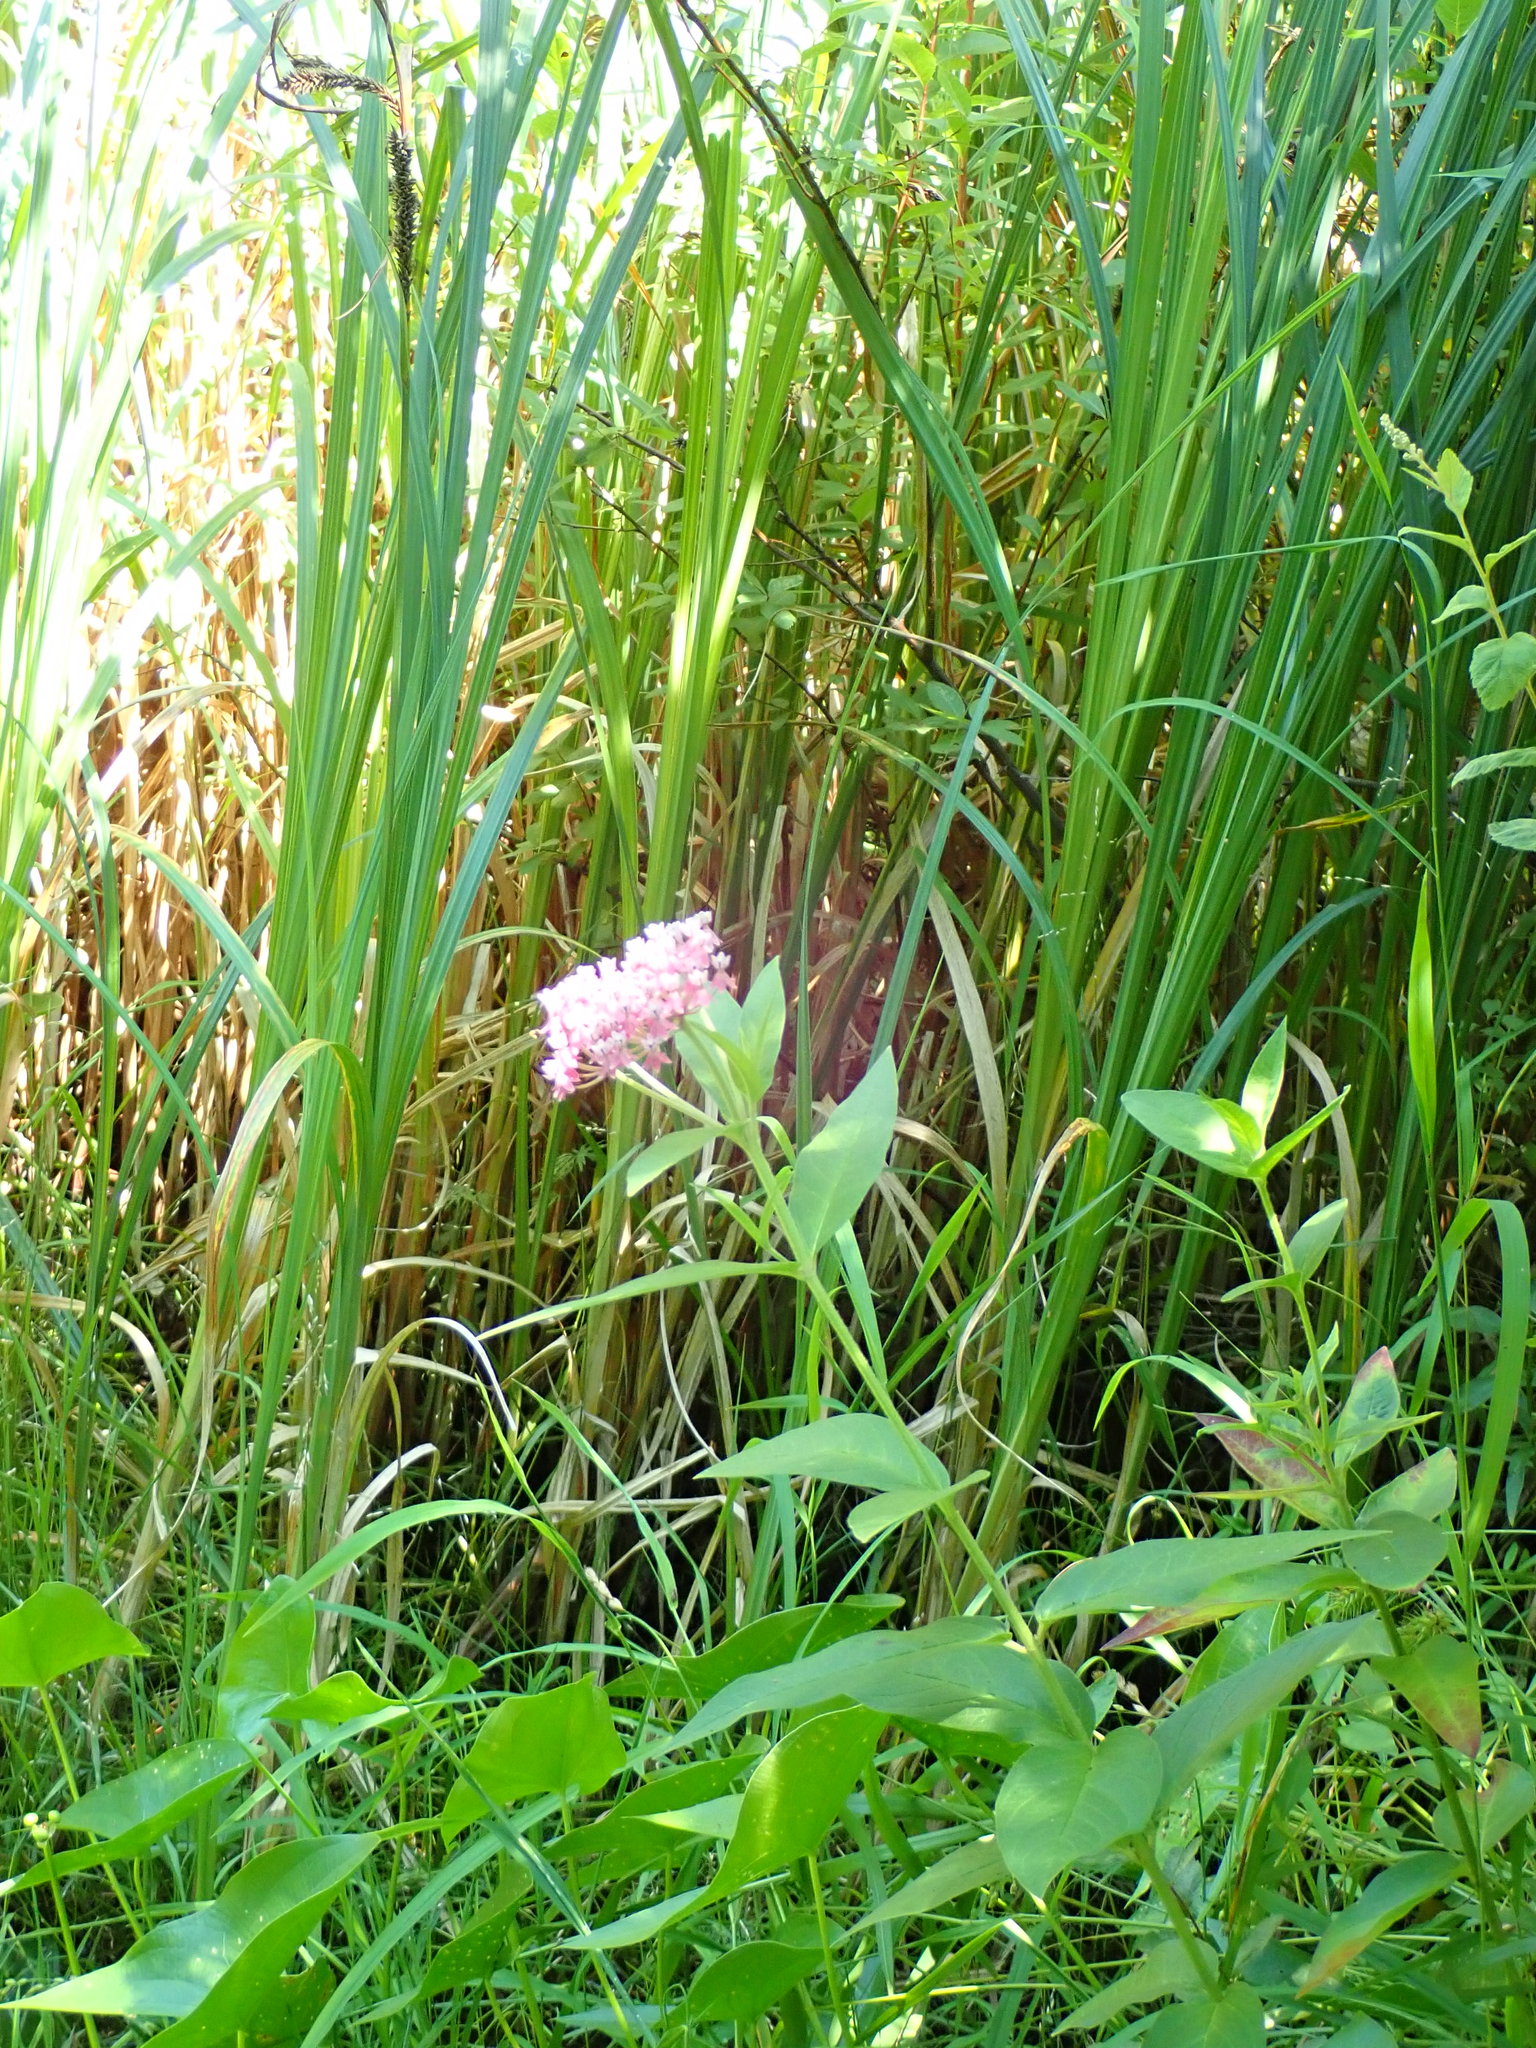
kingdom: Plantae
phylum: Tracheophyta
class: Magnoliopsida
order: Gentianales
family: Apocynaceae
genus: Asclepias
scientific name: Asclepias incarnata
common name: Swamp milkweed
